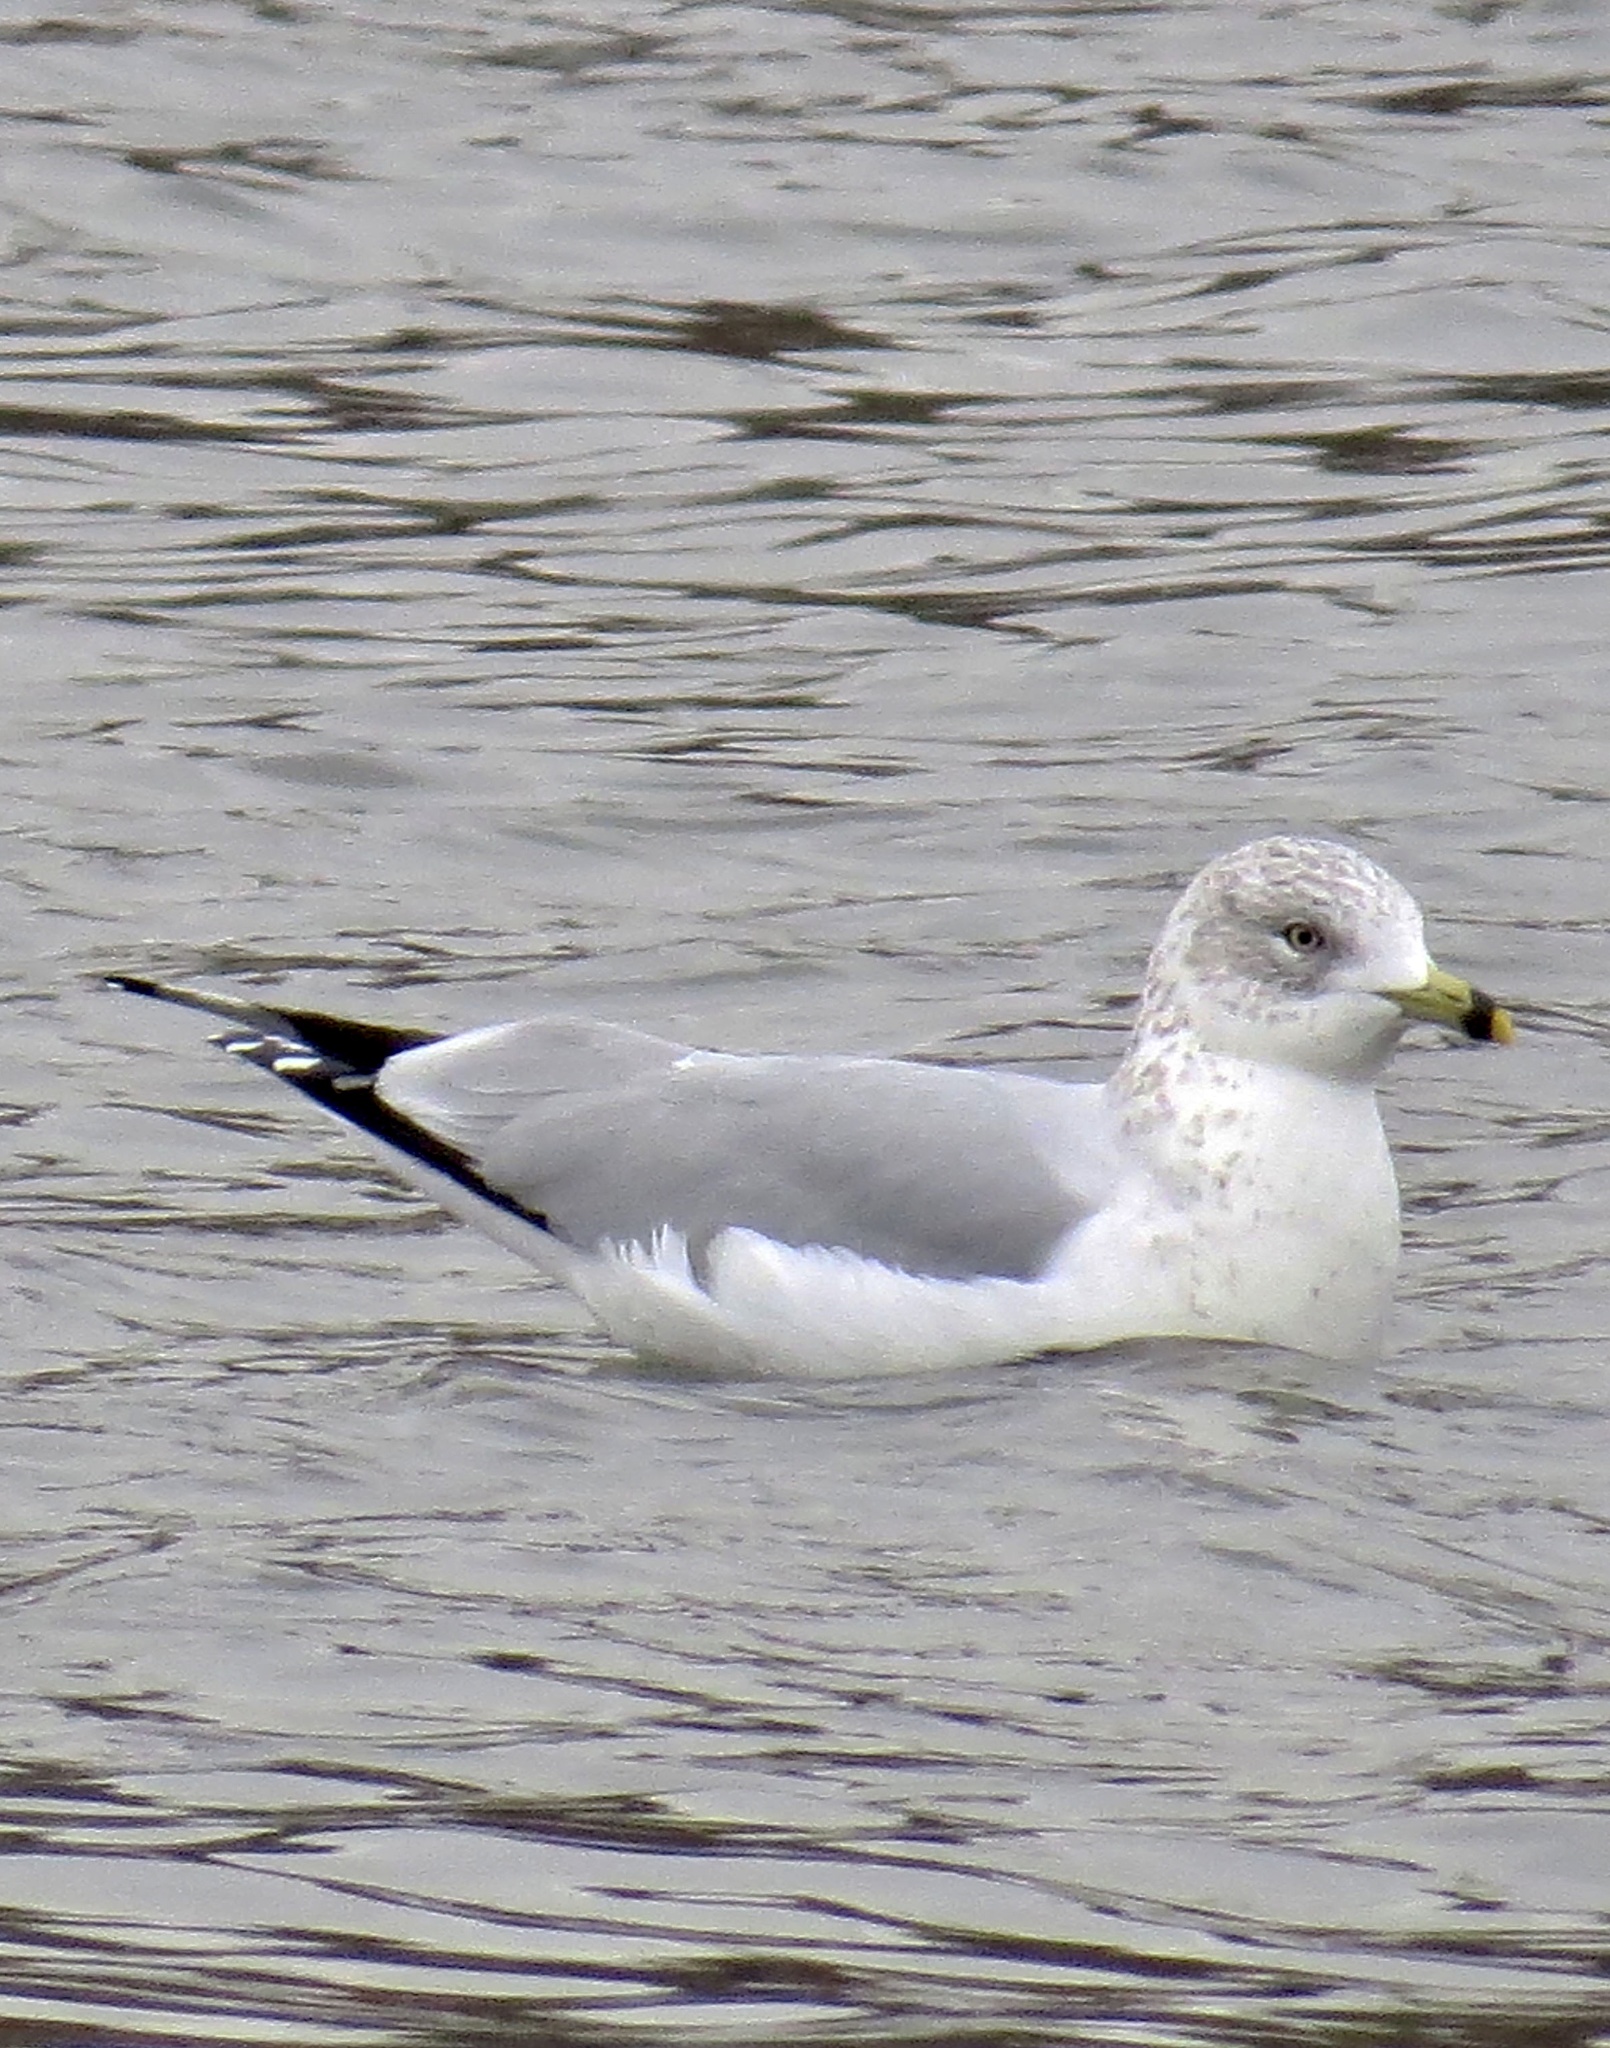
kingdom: Animalia
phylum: Chordata
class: Aves
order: Charadriiformes
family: Laridae
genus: Larus
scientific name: Larus delawarensis
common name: Ring-billed gull
